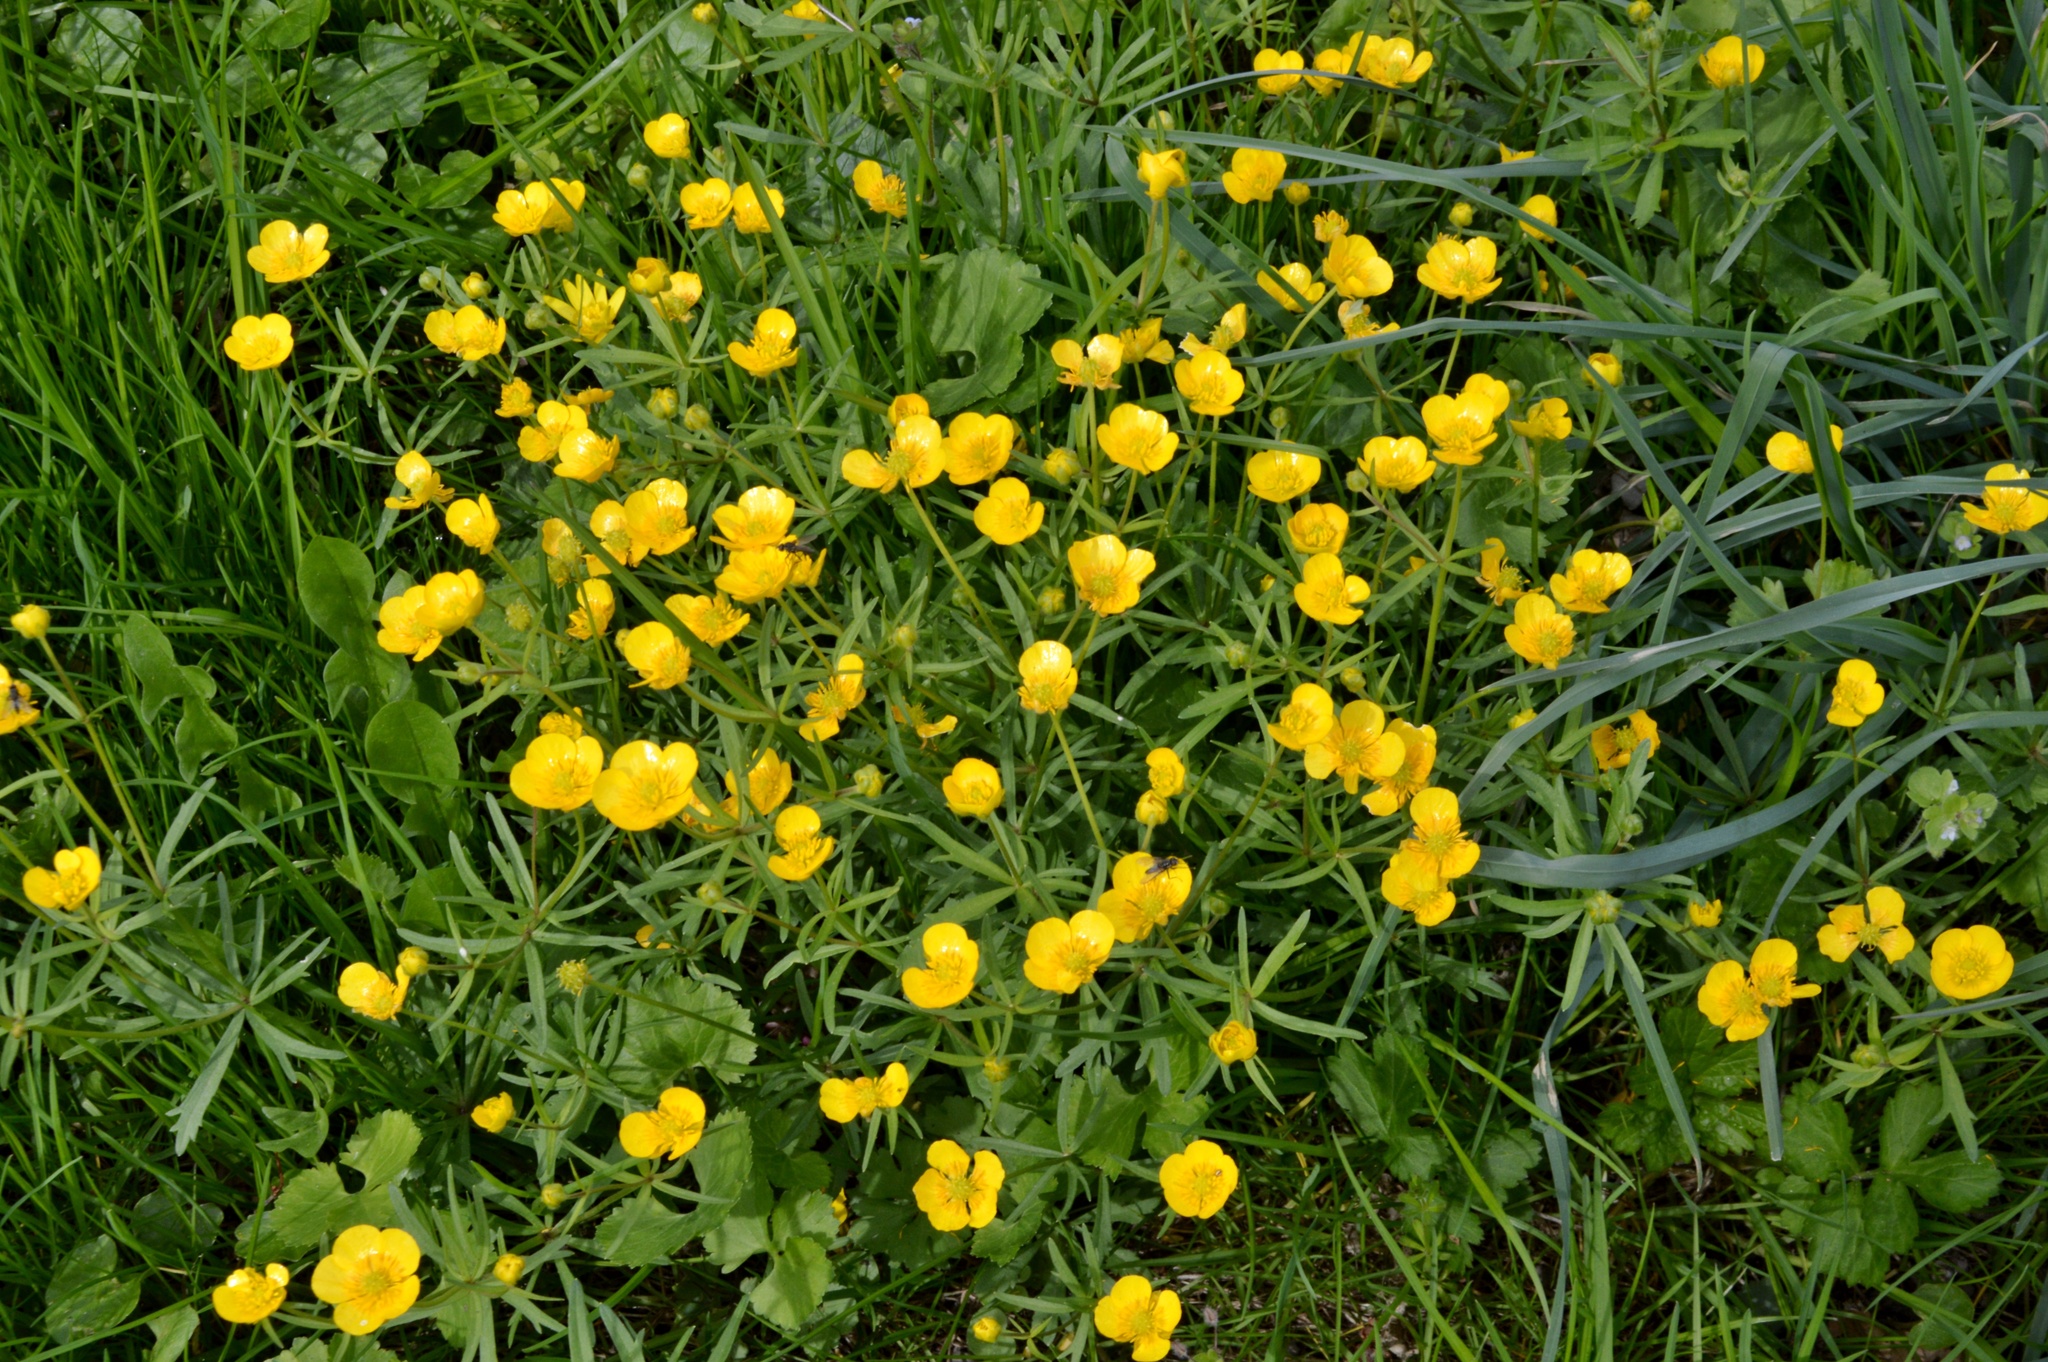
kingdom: Plantae
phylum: Tracheophyta
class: Magnoliopsida
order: Ranunculales
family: Ranunculaceae
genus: Ranunculus
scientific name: Ranunculus auricomus
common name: Goldilocks buttercup
